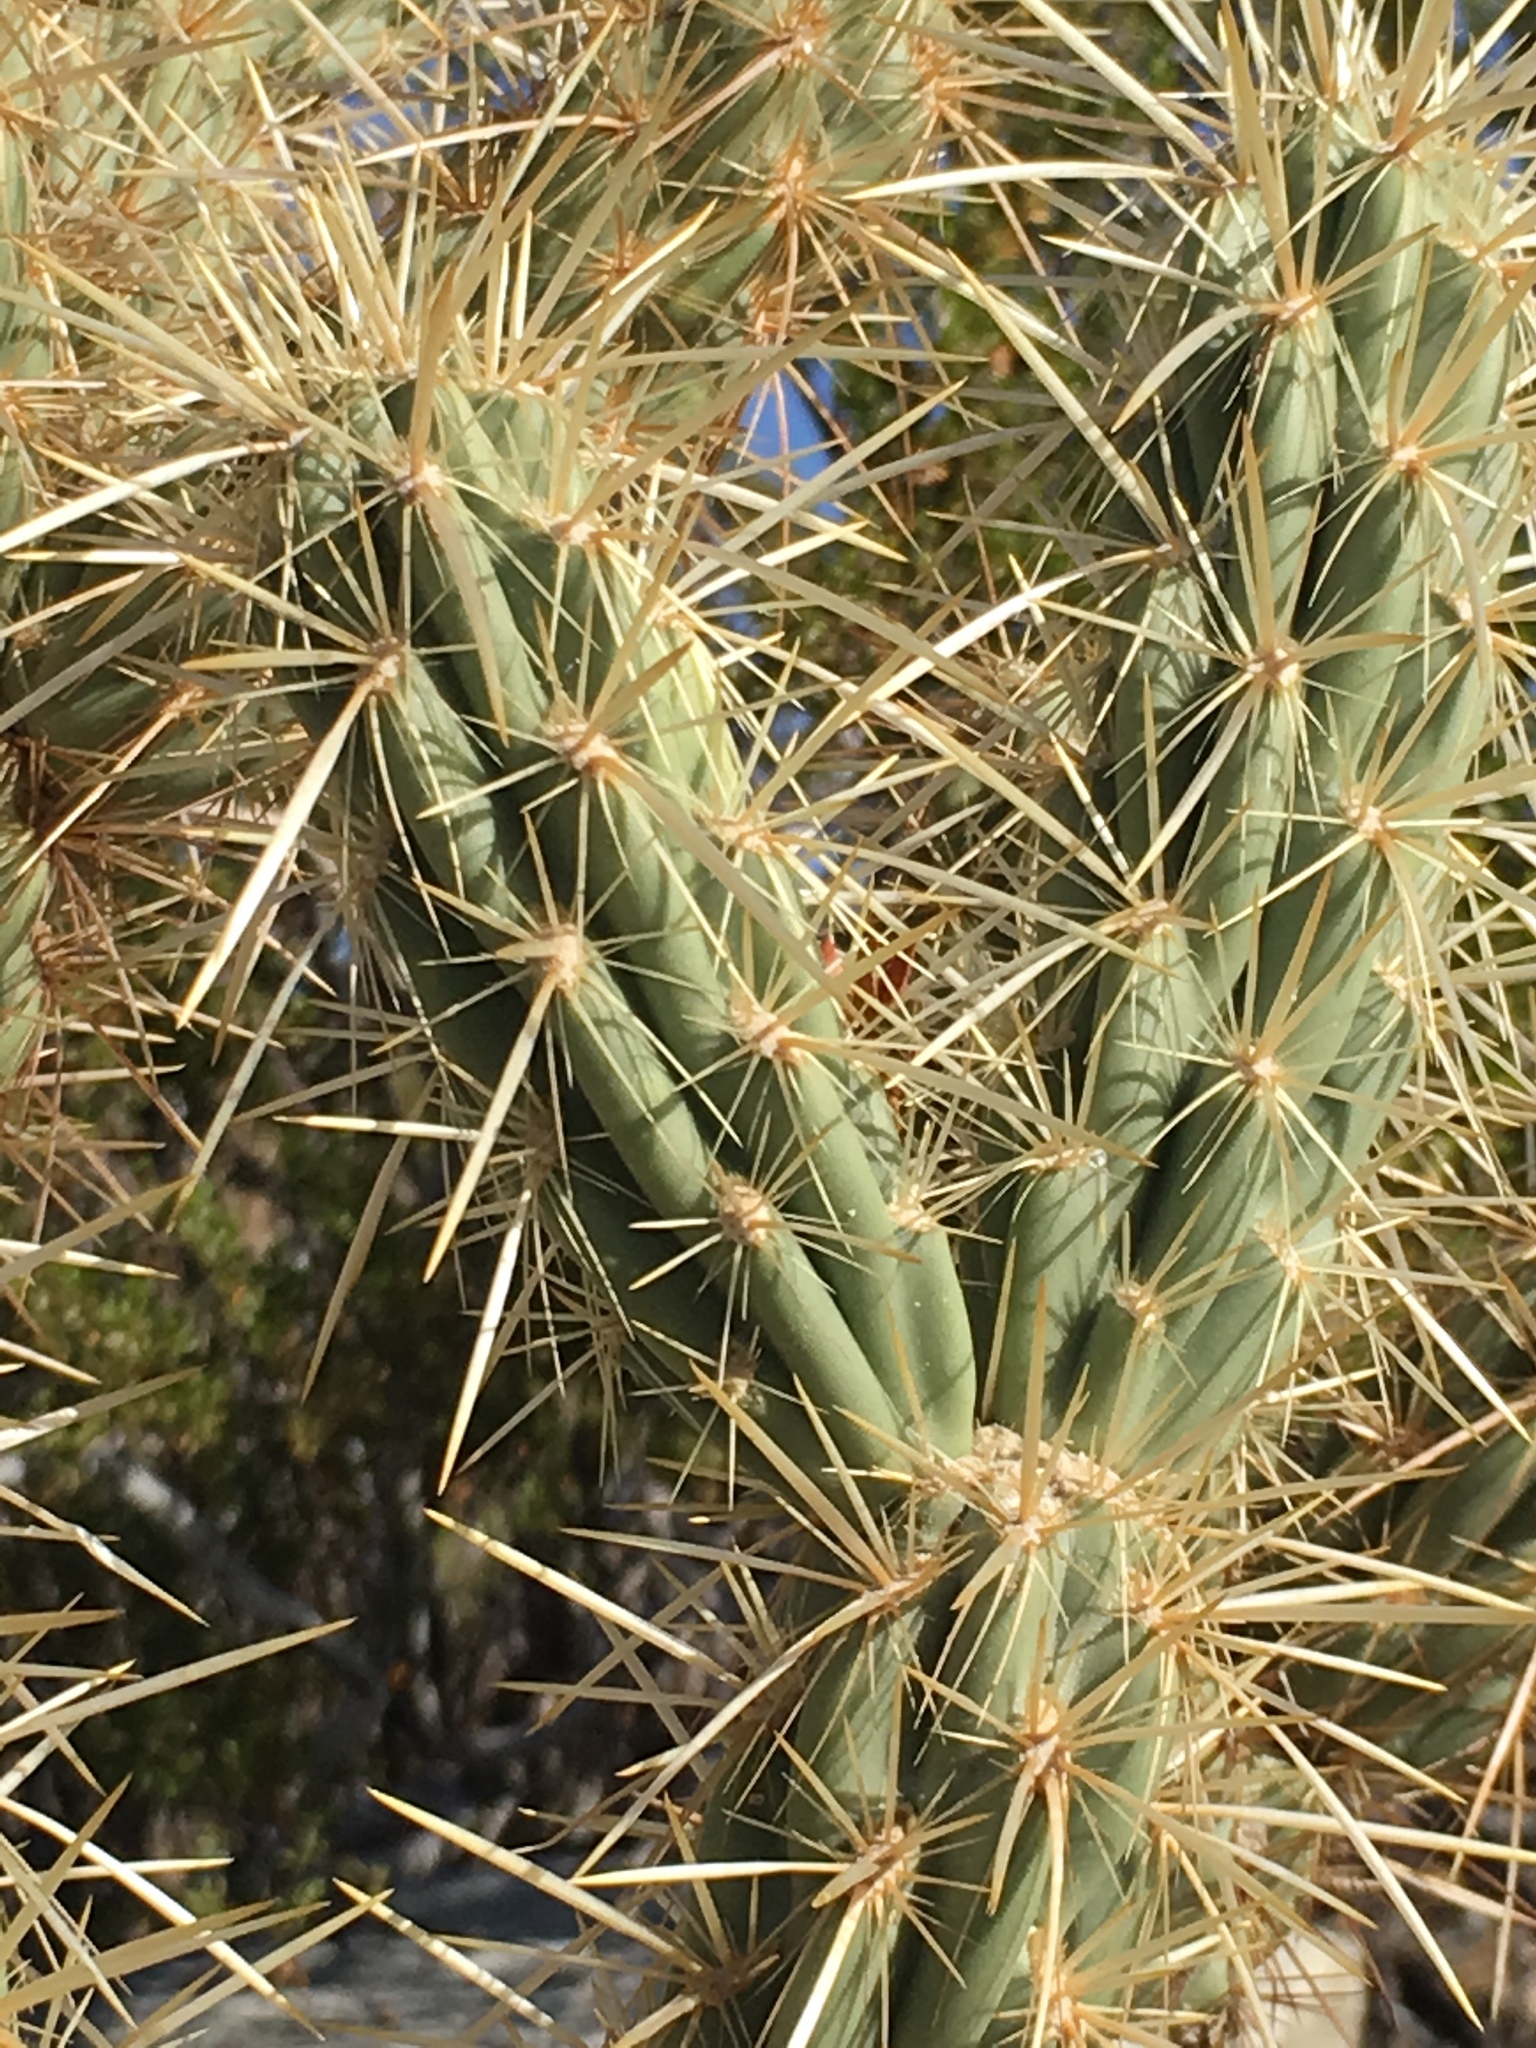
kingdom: Plantae
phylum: Tracheophyta
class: Magnoliopsida
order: Caryophyllales
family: Cactaceae
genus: Cylindropuntia
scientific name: Cylindropuntia ganderi
